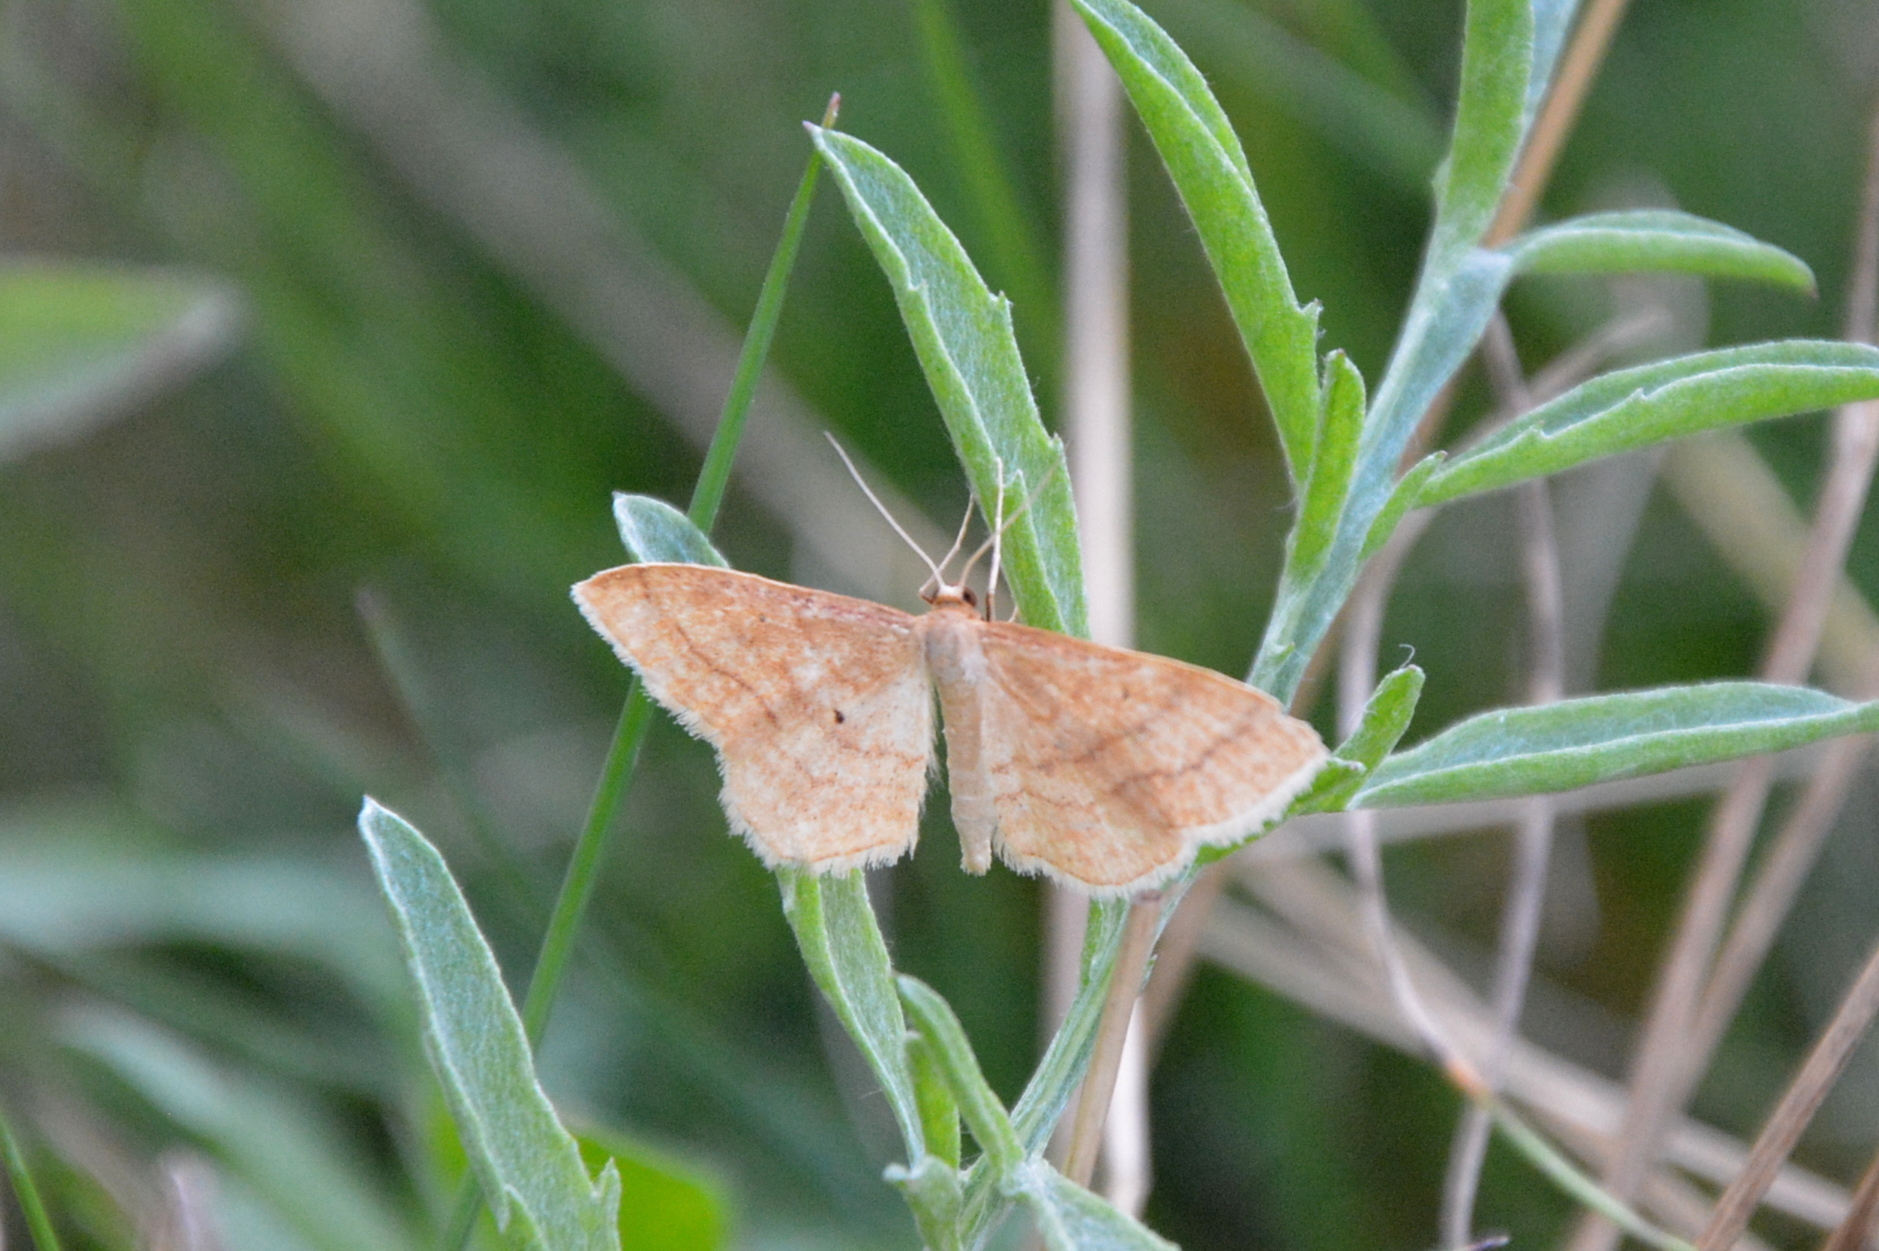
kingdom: Animalia
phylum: Arthropoda
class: Insecta
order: Lepidoptera
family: Geometridae
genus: Idaea
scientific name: Idaea rufaria
